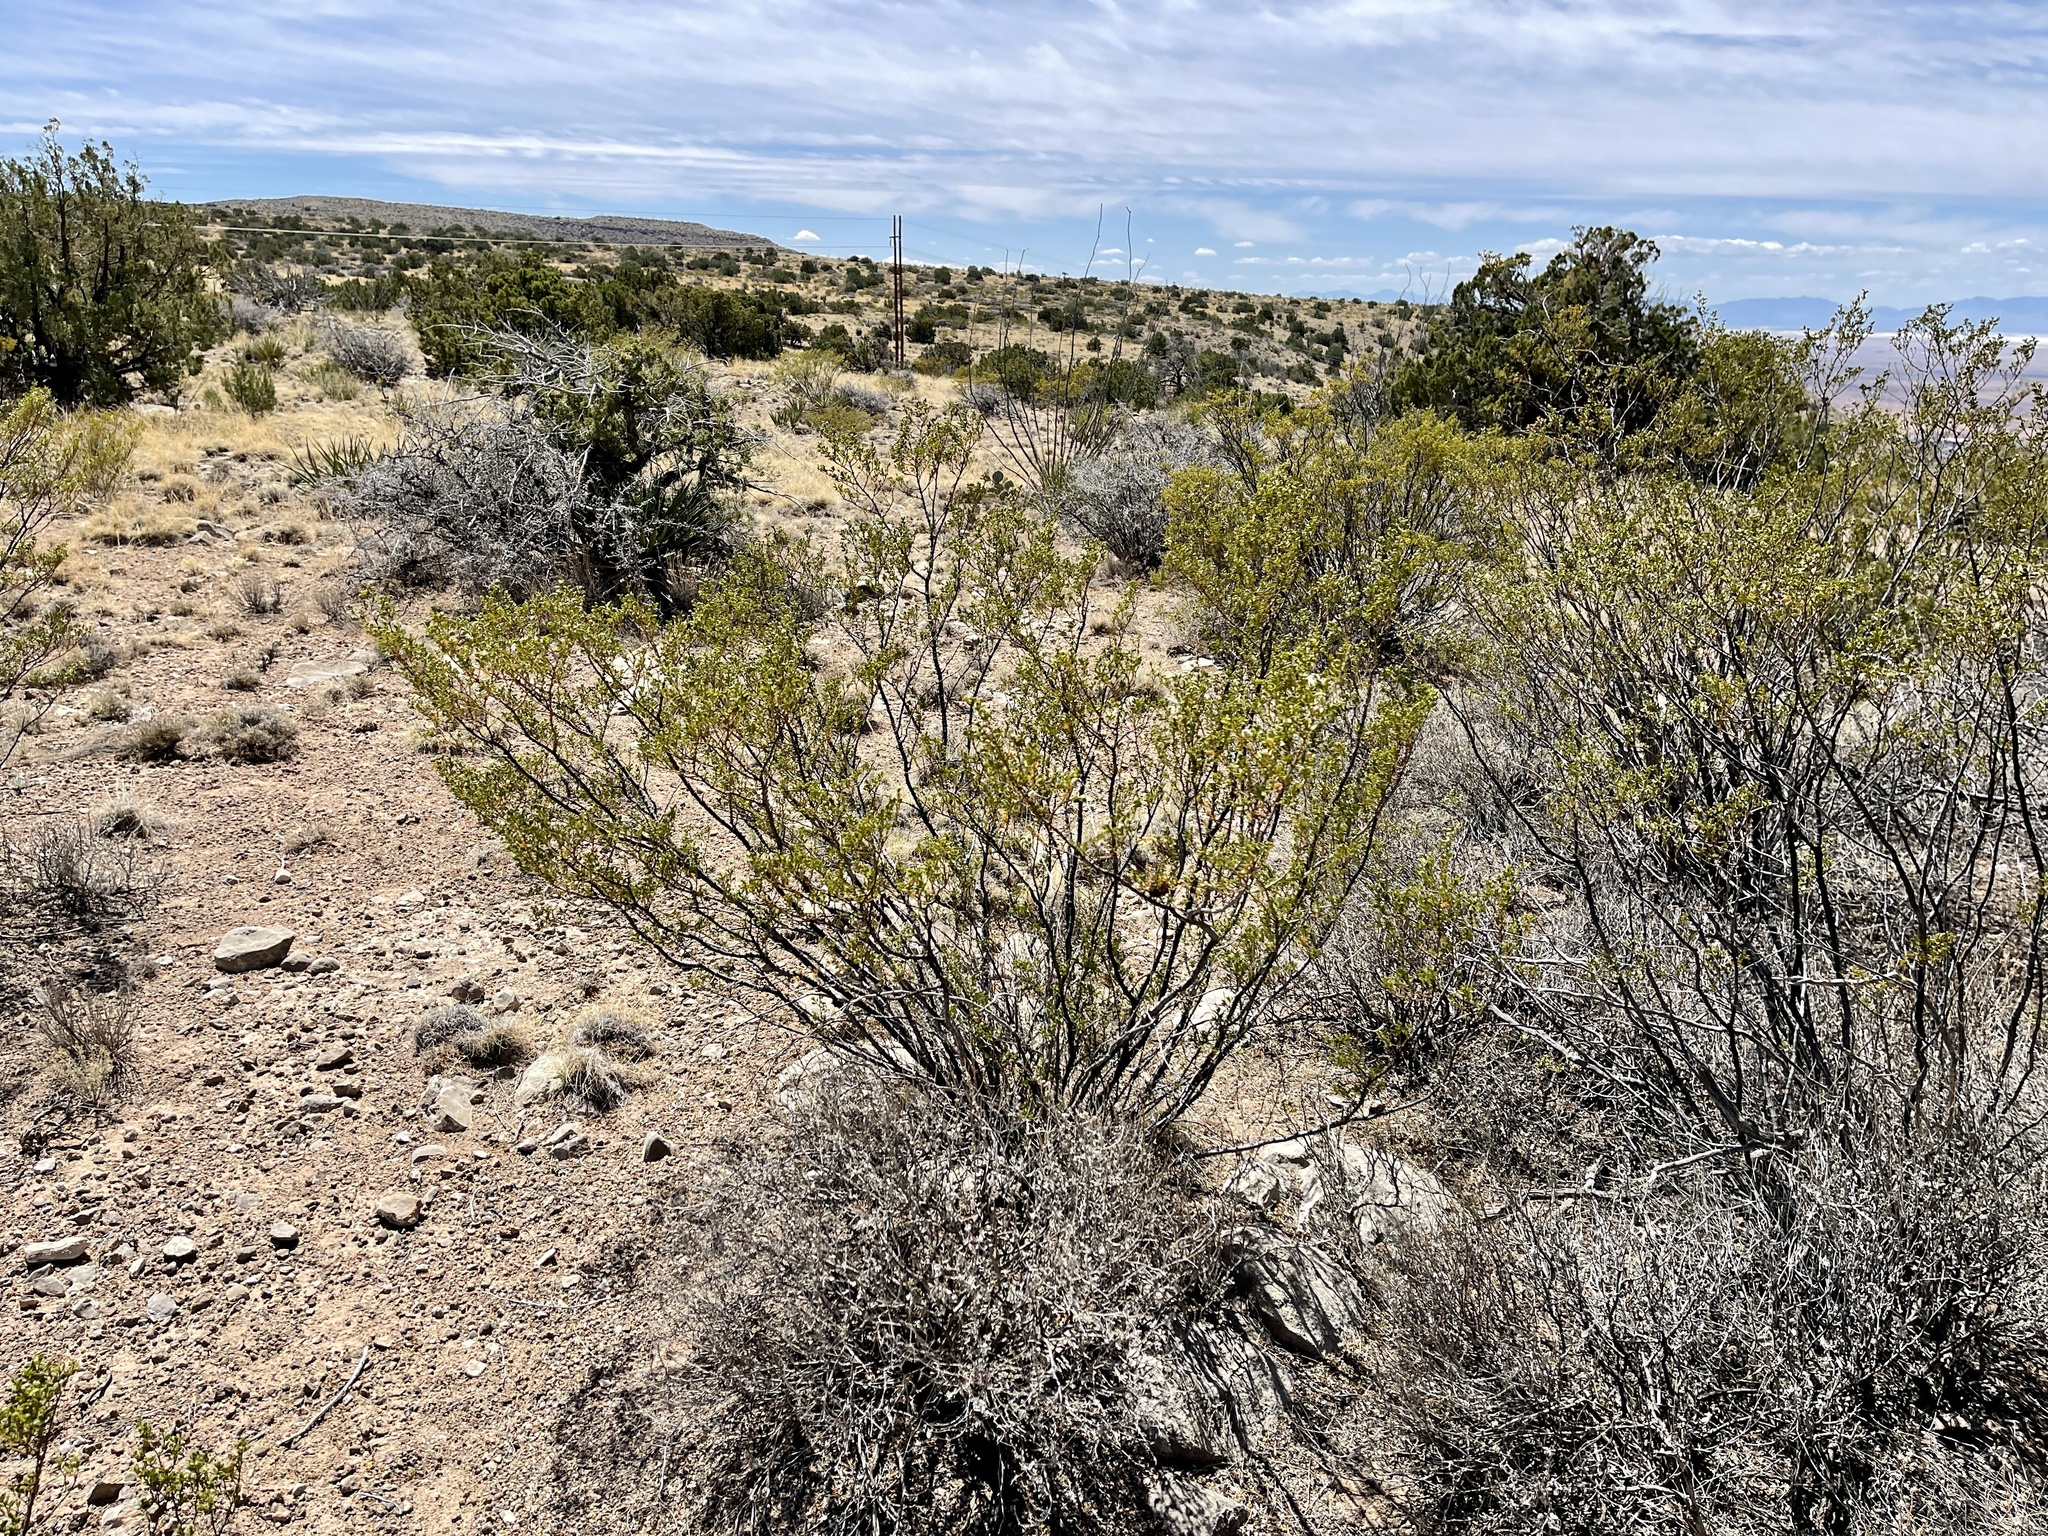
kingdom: Plantae
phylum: Tracheophyta
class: Magnoliopsida
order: Zygophyllales
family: Zygophyllaceae
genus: Larrea
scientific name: Larrea tridentata
